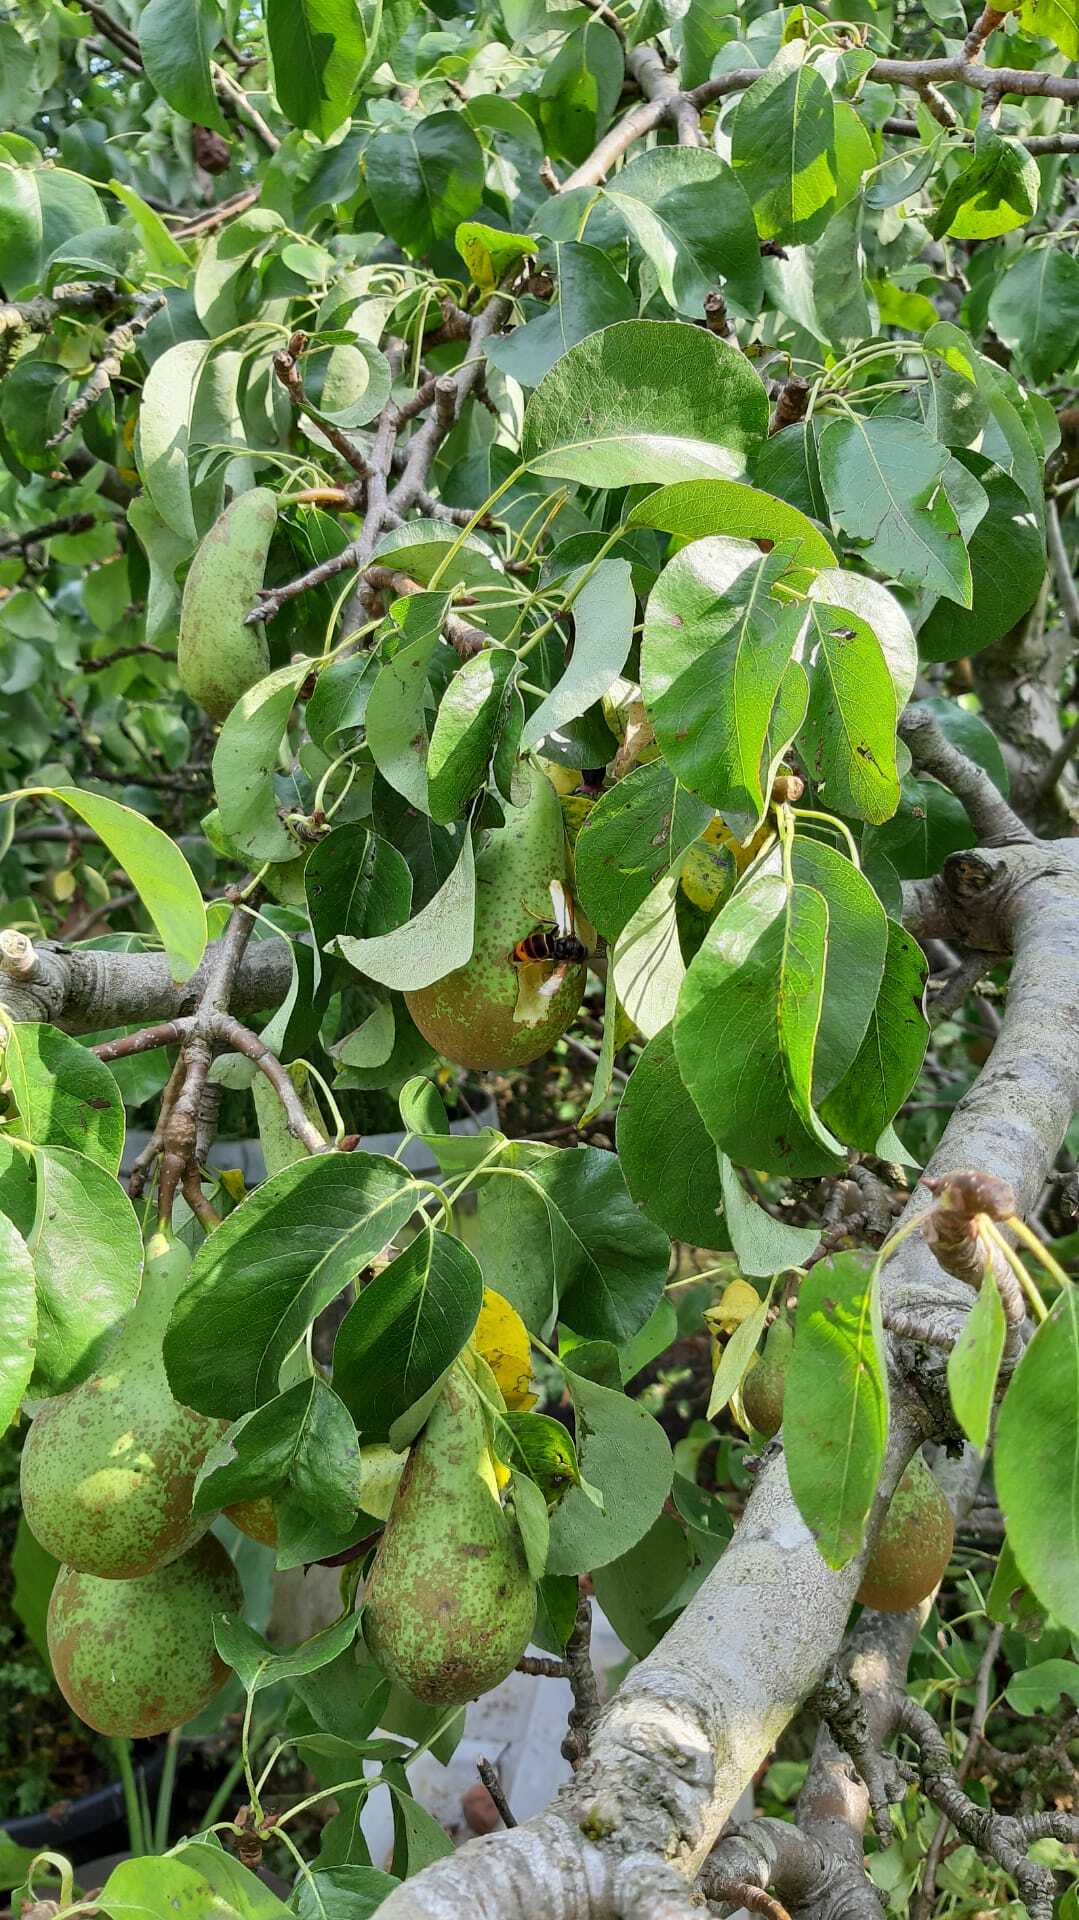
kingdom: Animalia
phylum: Arthropoda
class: Insecta
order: Hymenoptera
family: Vespidae
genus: Vespa
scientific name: Vespa velutina
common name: Asian hornet
